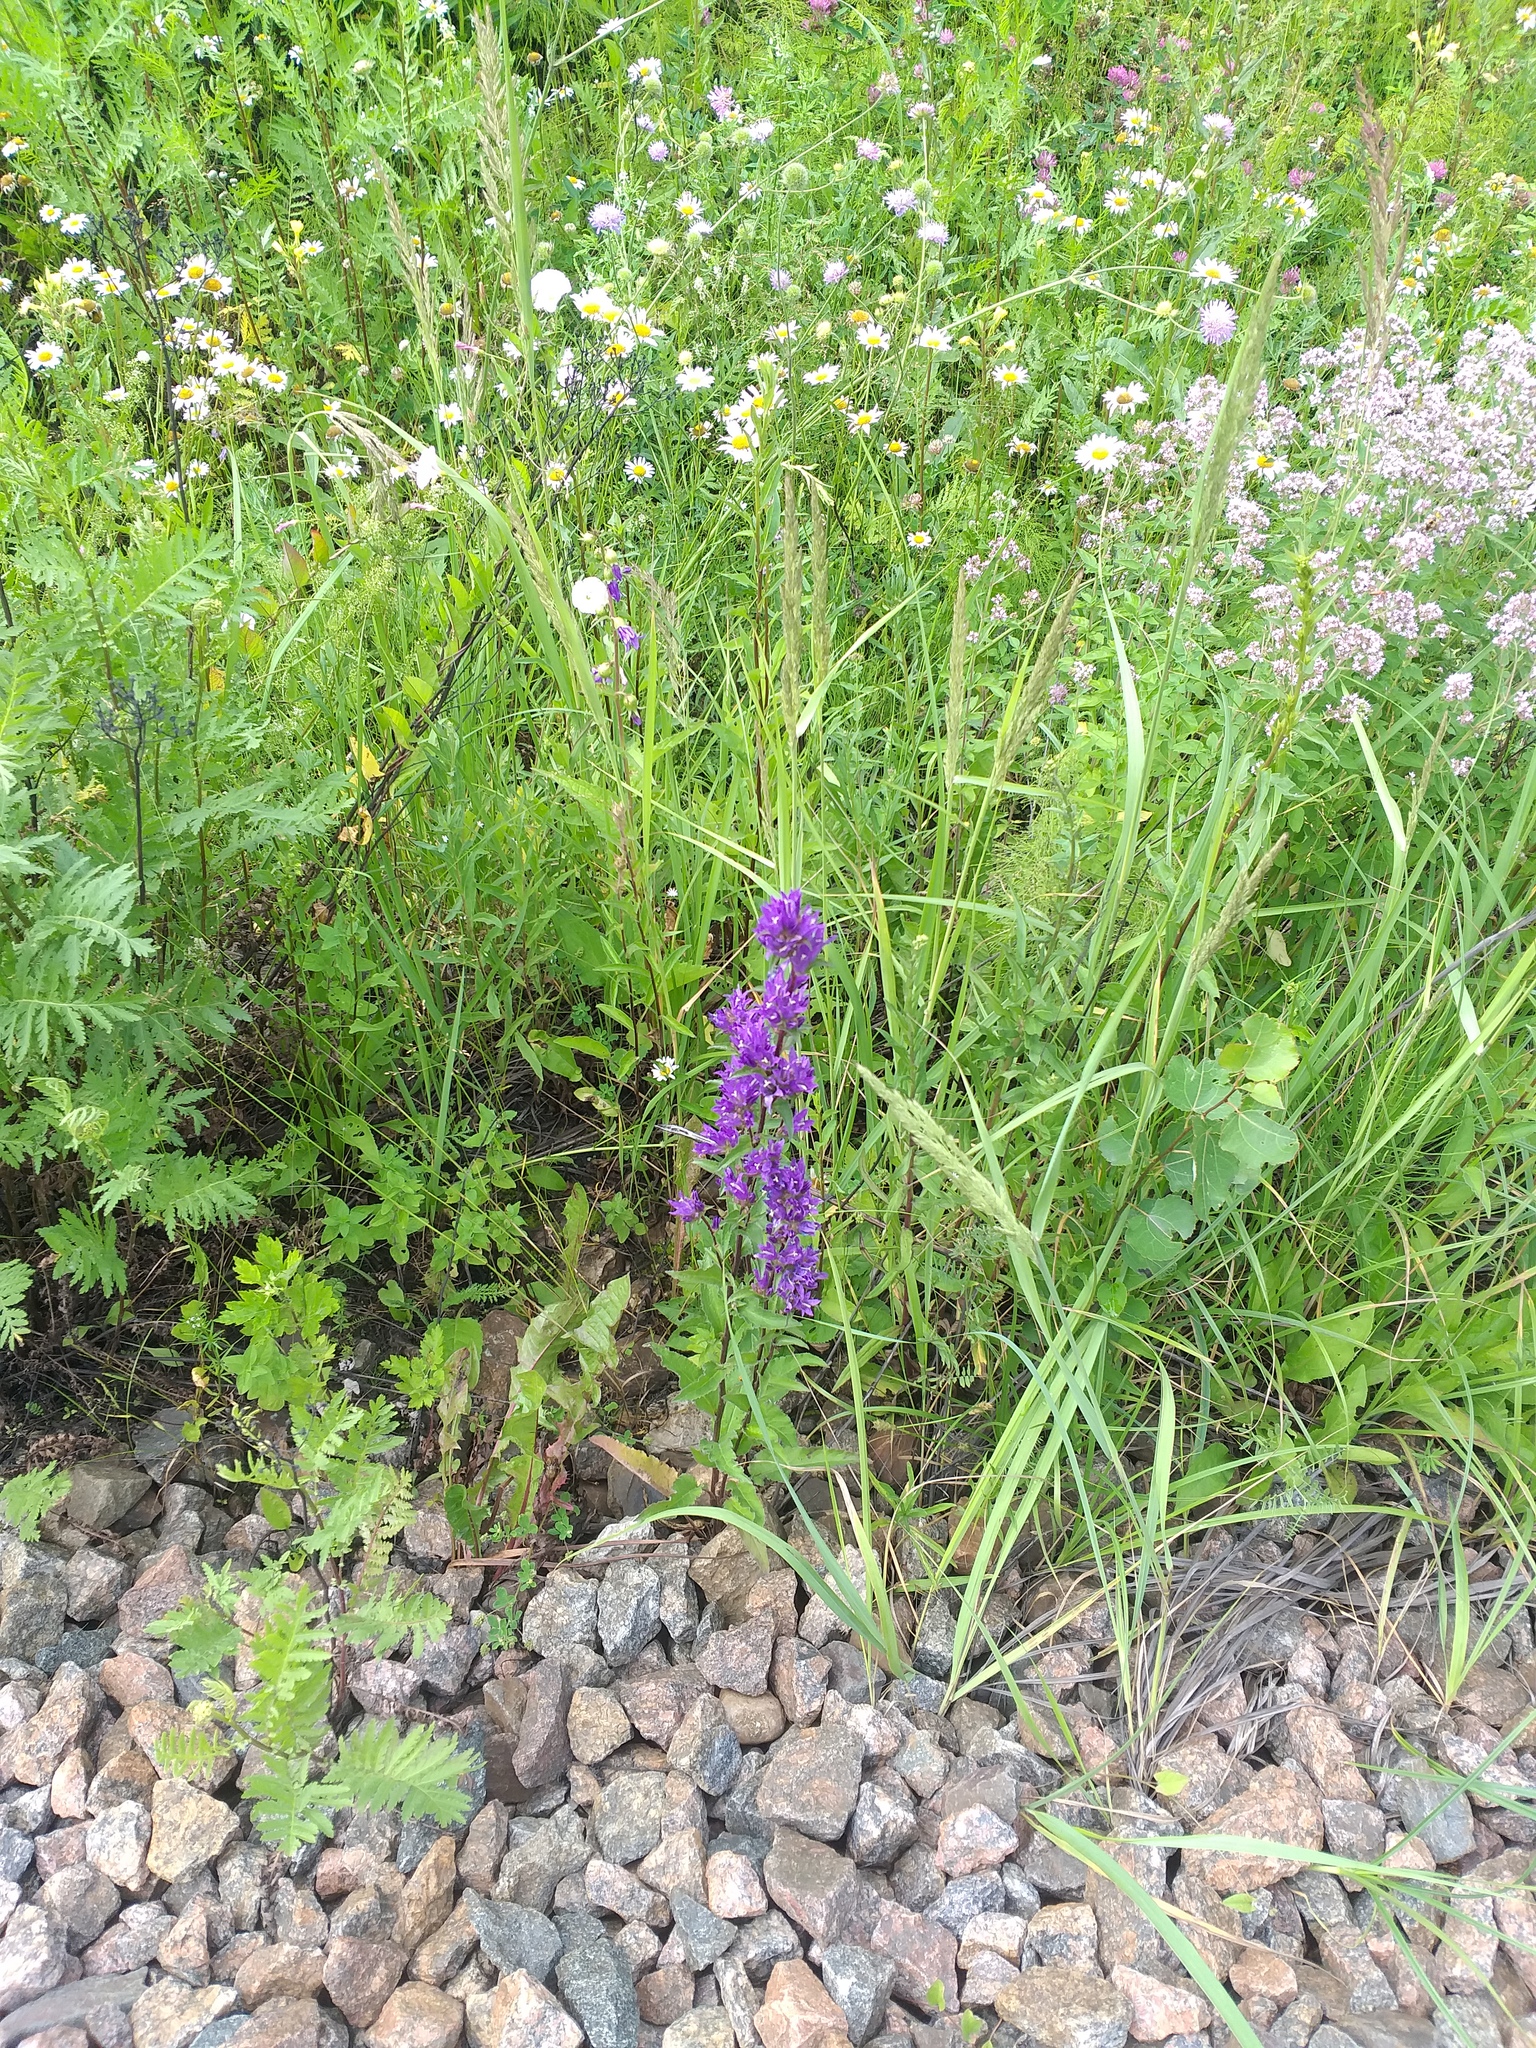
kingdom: Plantae
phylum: Tracheophyta
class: Magnoliopsida
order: Asterales
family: Campanulaceae
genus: Campanula
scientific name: Campanula glomerata
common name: Clustered bellflower
